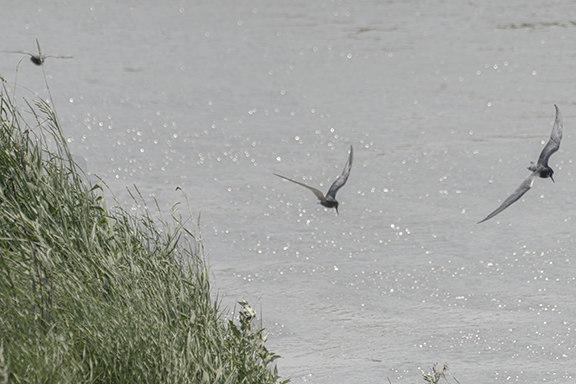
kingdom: Animalia
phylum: Chordata
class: Aves
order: Charadriiformes
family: Laridae
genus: Chlidonias
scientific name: Chlidonias niger
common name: Black tern
